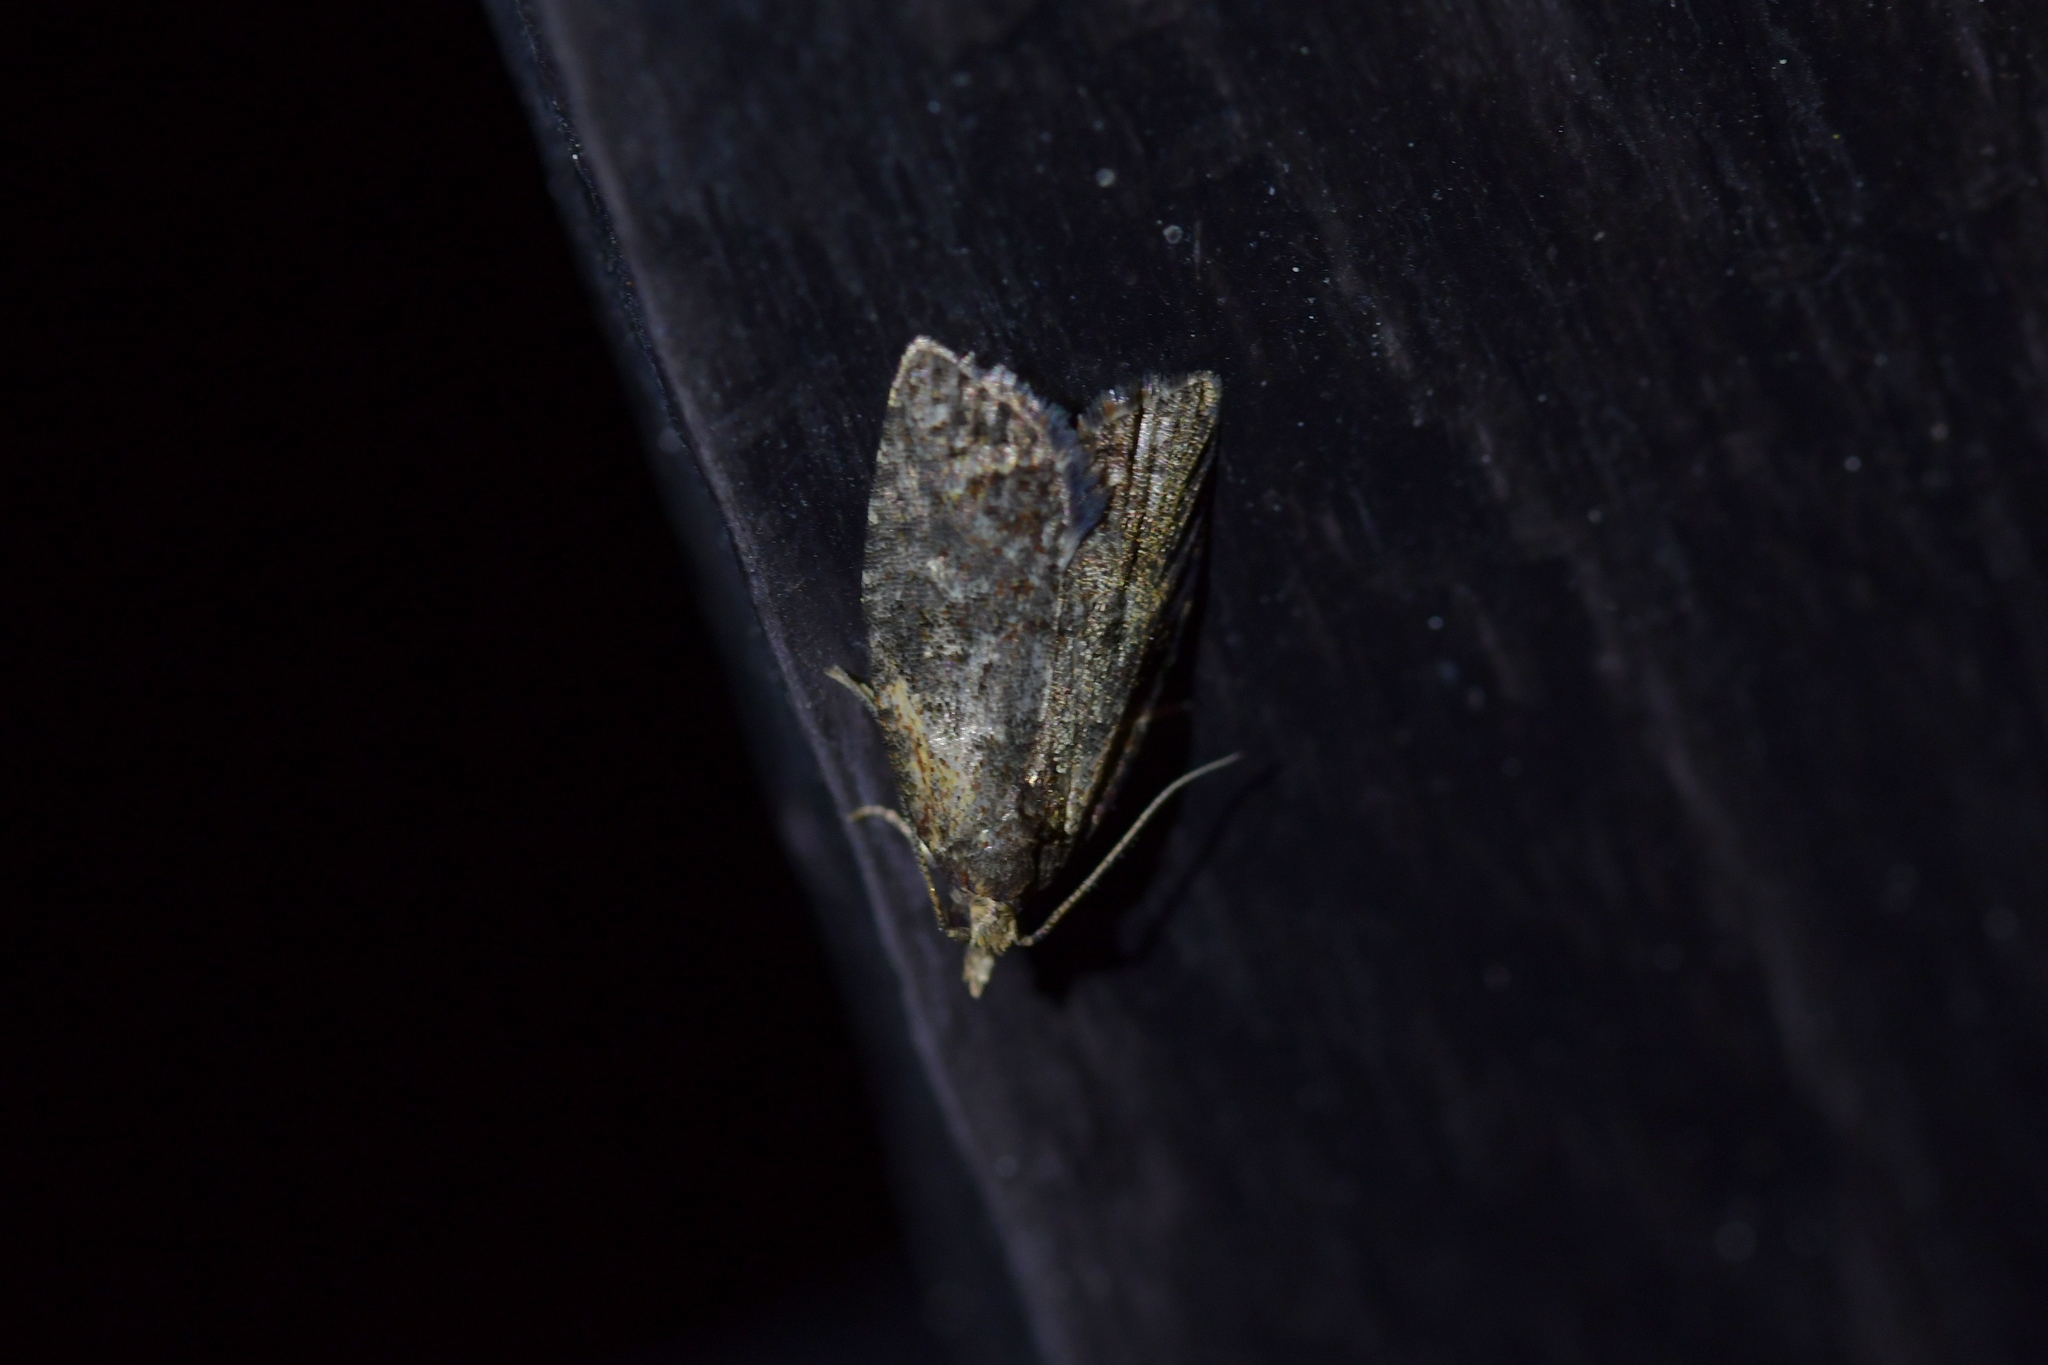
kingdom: Animalia
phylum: Arthropoda
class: Insecta
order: Lepidoptera
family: Tortricidae
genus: Capua
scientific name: Capua intractana
